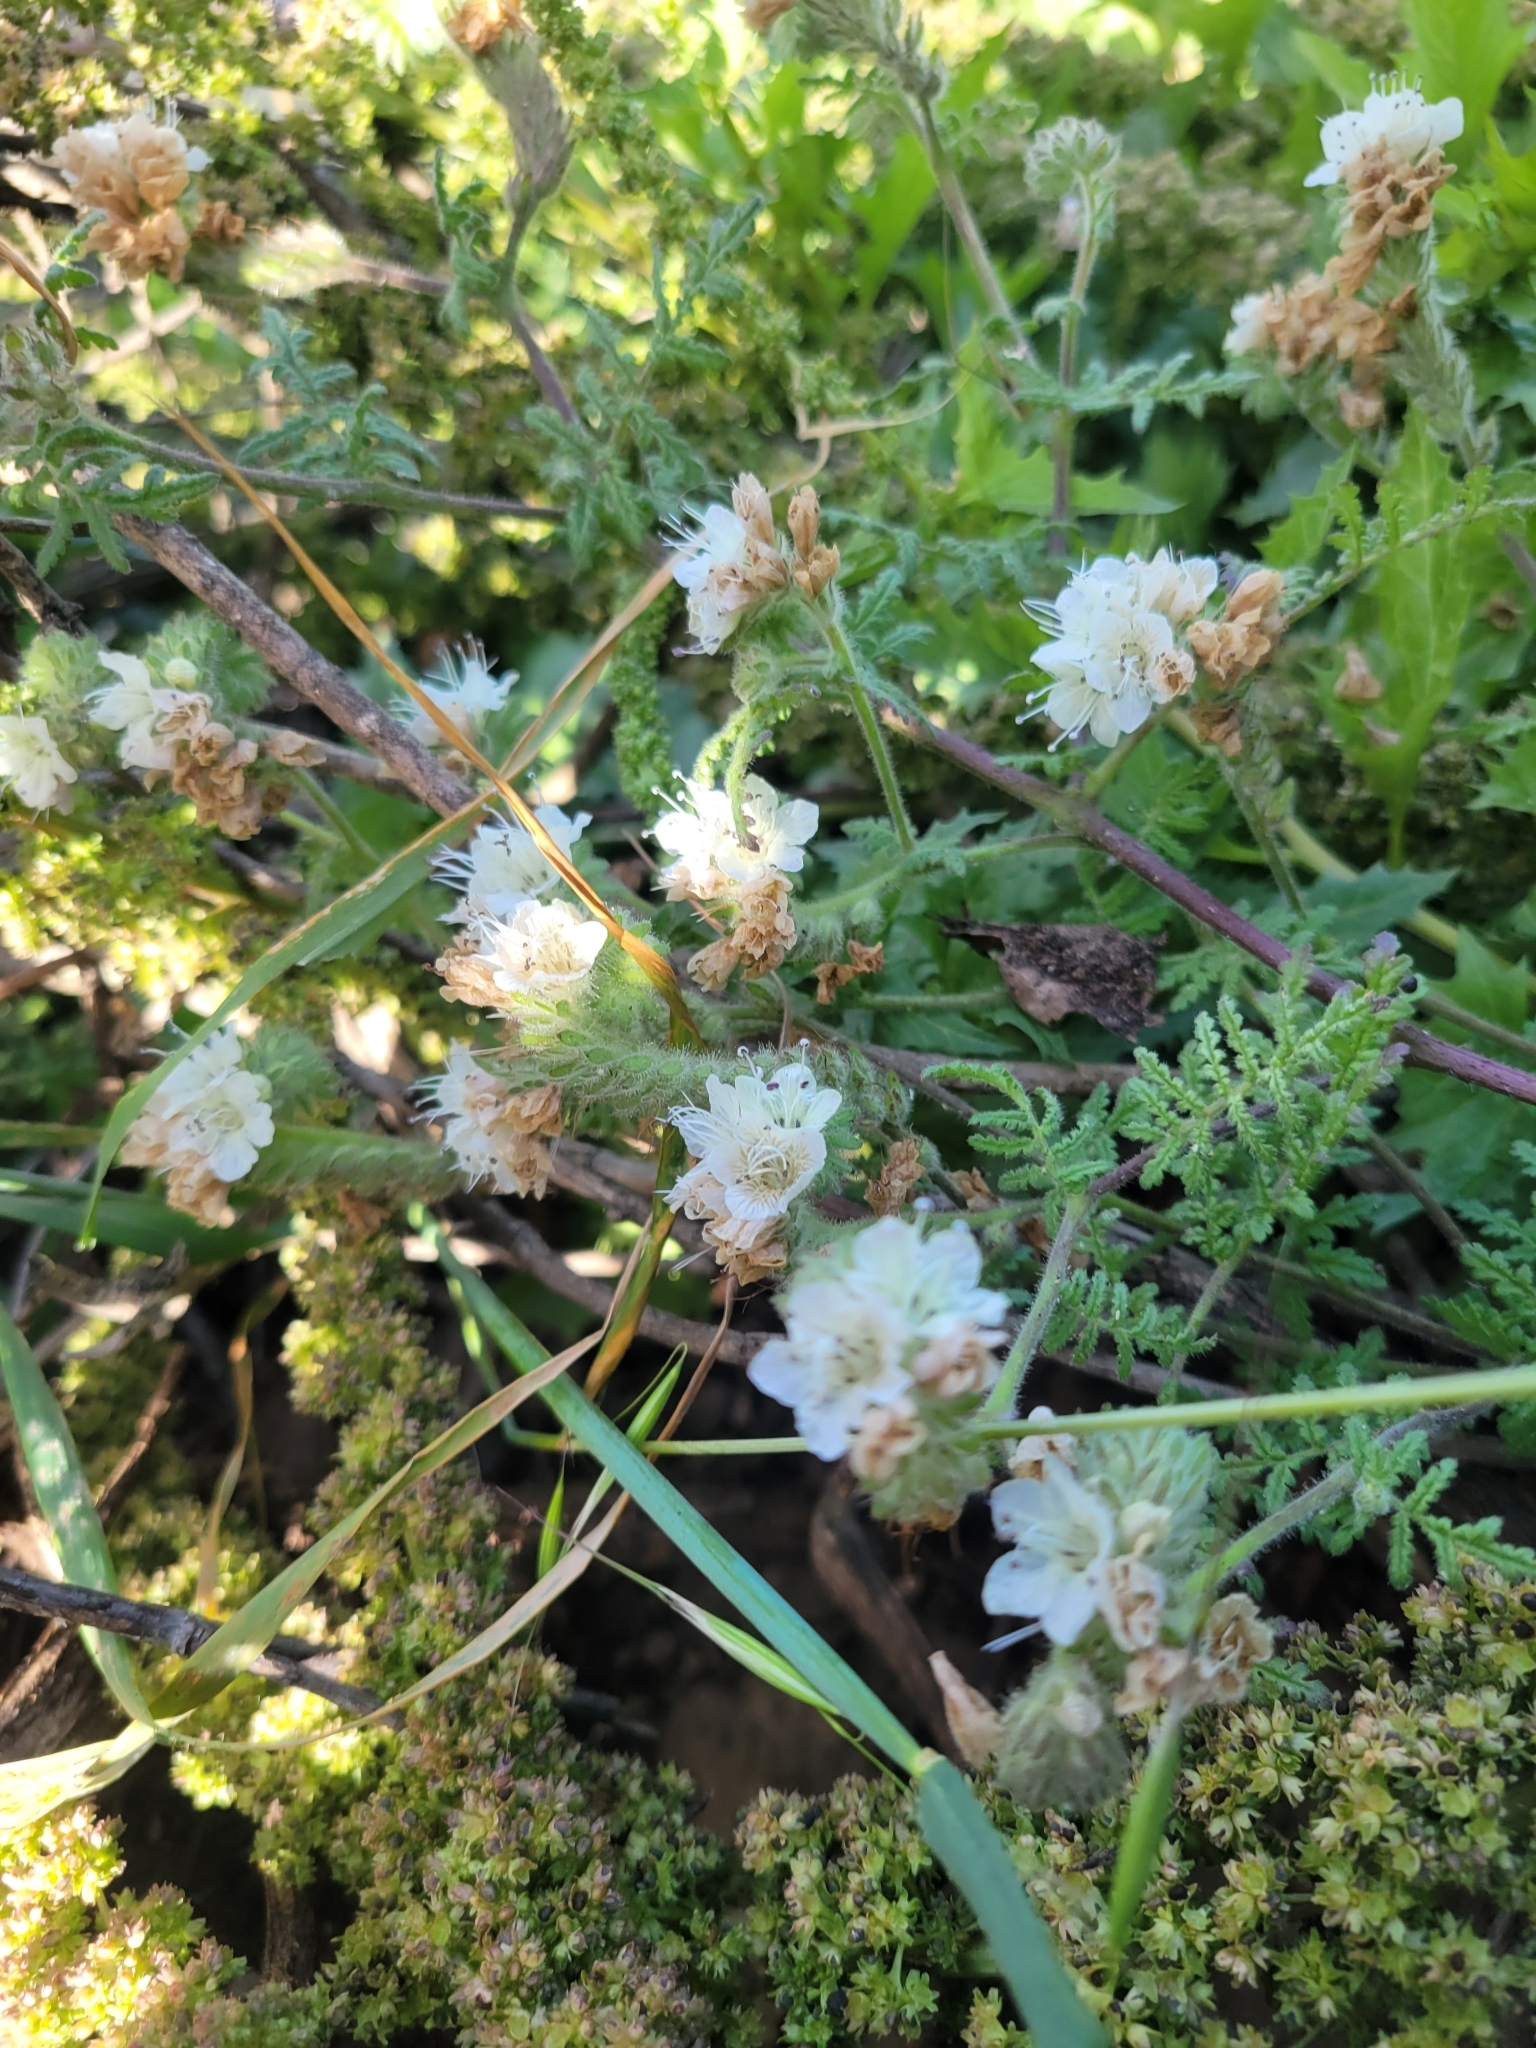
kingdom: Plantae
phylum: Tracheophyta
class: Magnoliopsida
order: Boraginales
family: Hydrophyllaceae
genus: Phacelia
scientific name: Phacelia distans
